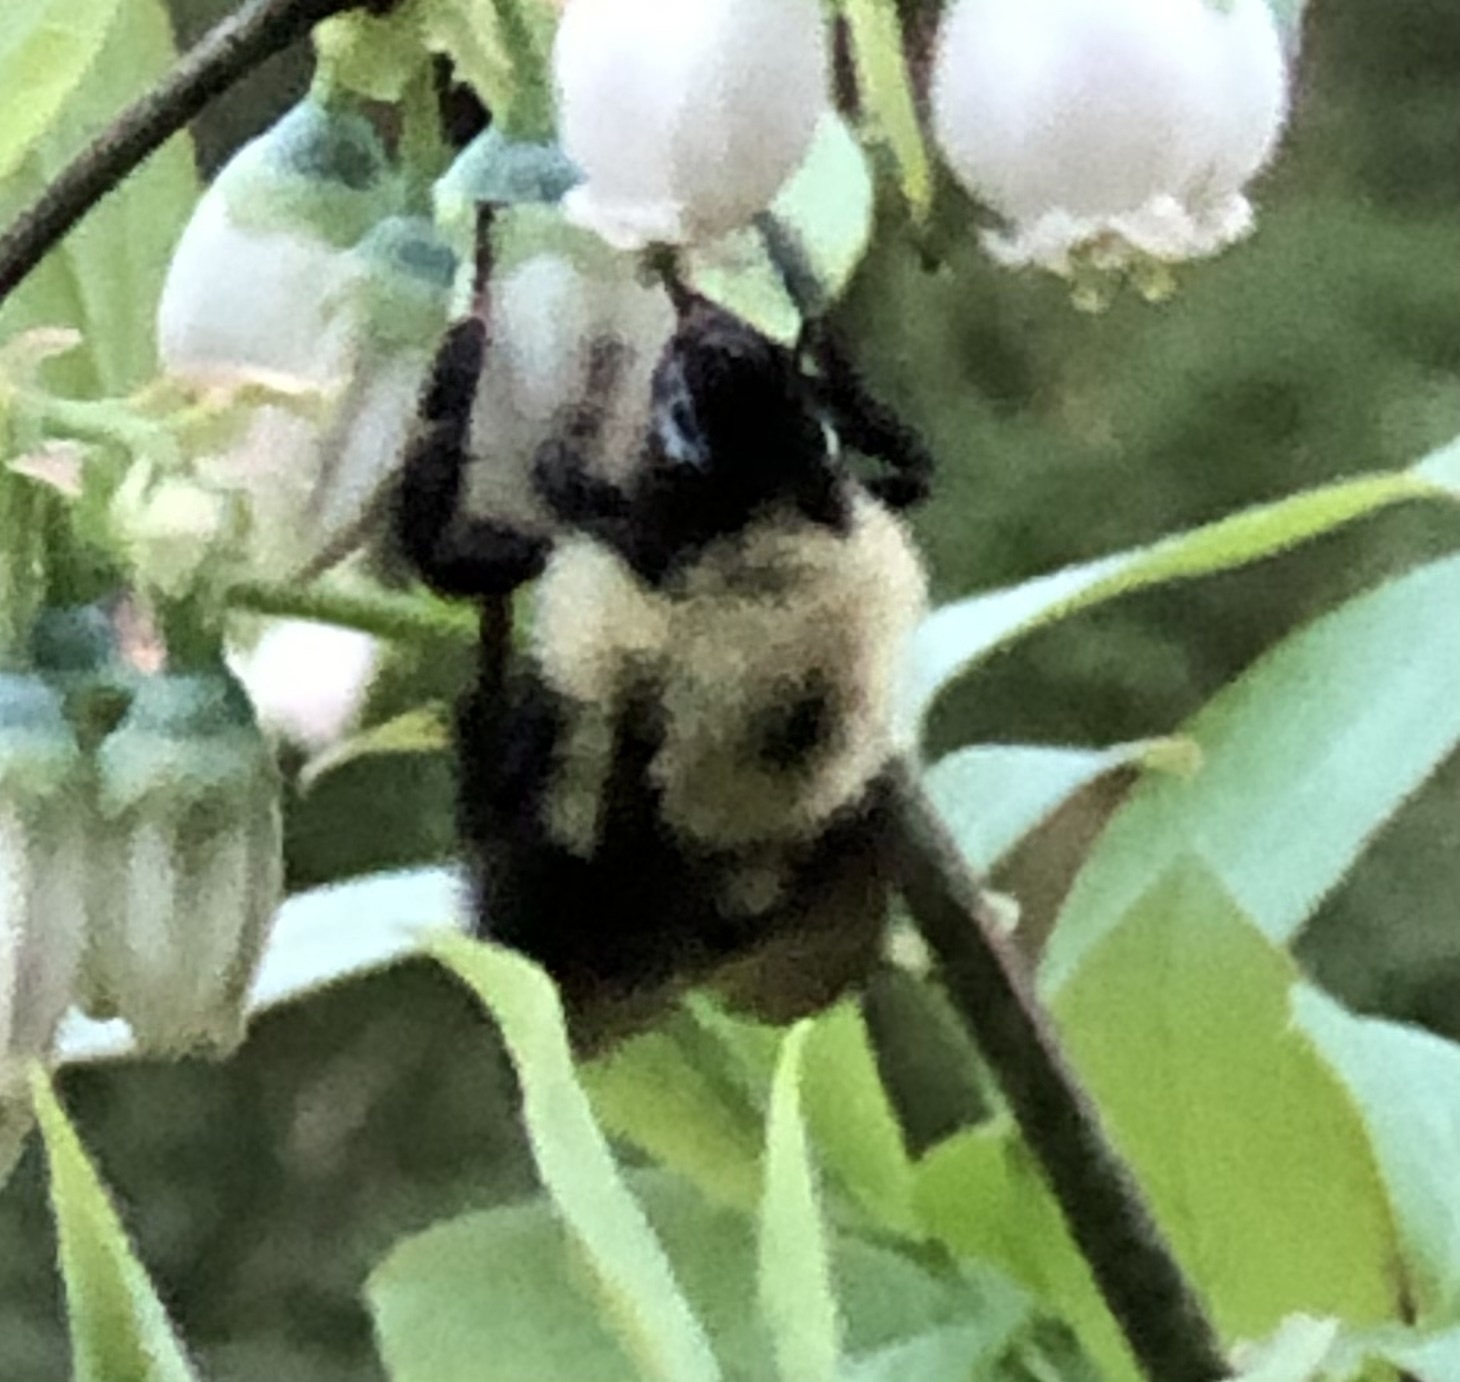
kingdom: Animalia
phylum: Arthropoda
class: Insecta
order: Hymenoptera
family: Apidae
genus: Bombus
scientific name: Bombus bimaculatus
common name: Two-spotted bumble bee
